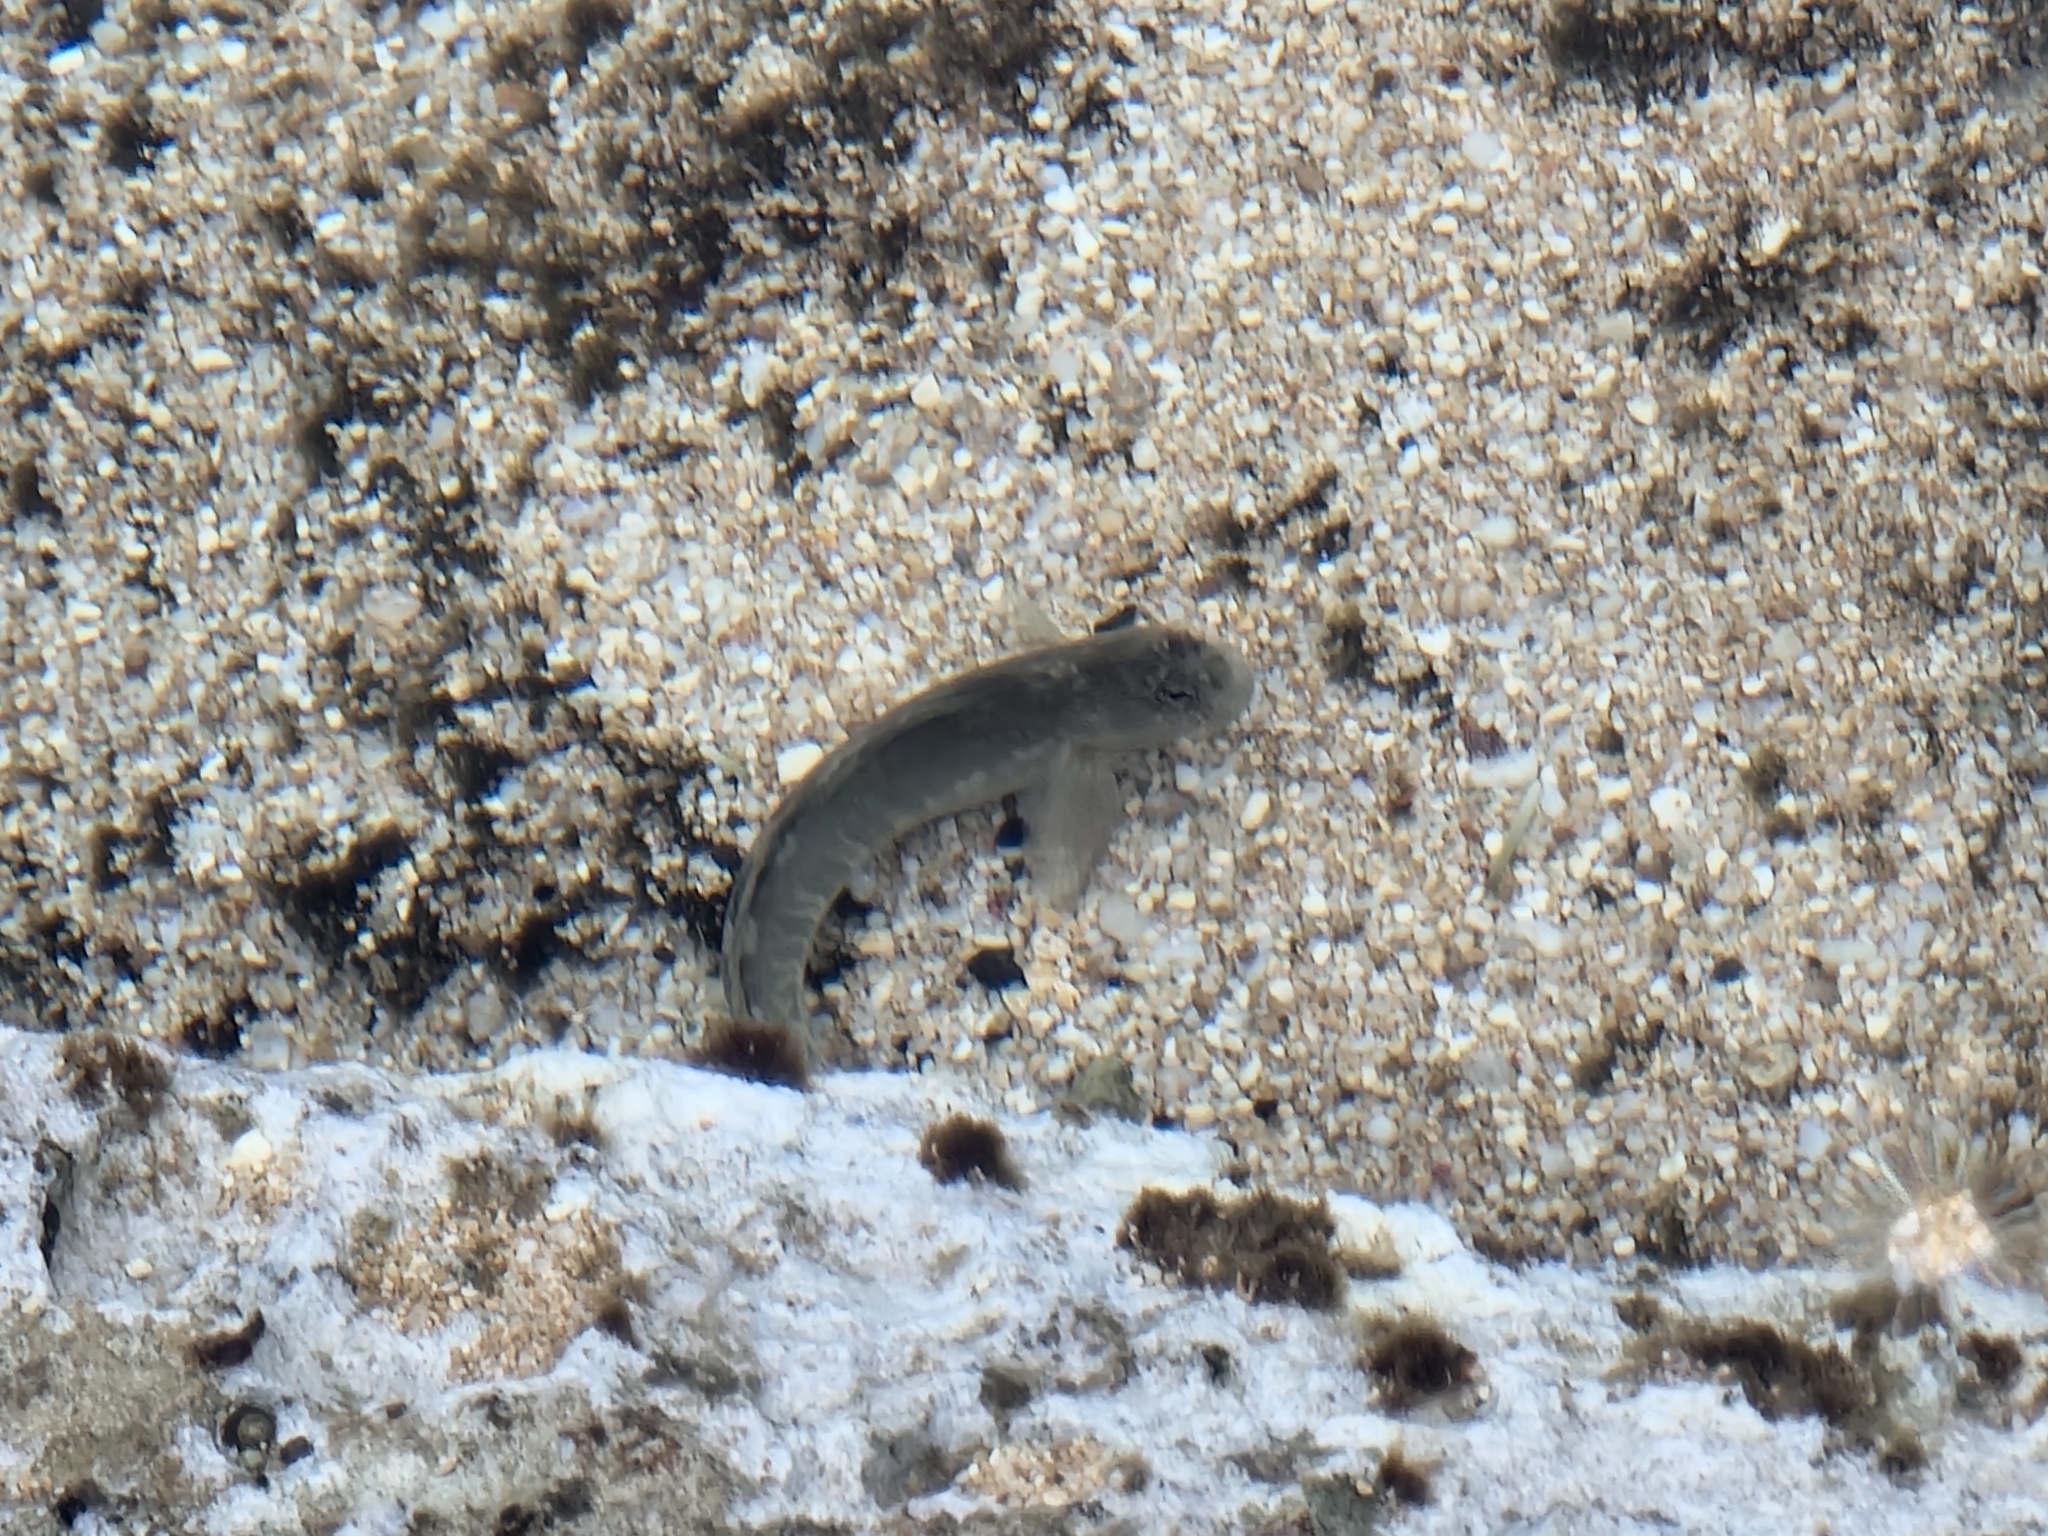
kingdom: Animalia
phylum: Chordata
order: Perciformes
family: Blenniidae
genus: Istiblennius
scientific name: Istiblennius zebra
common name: Zebra blenny
